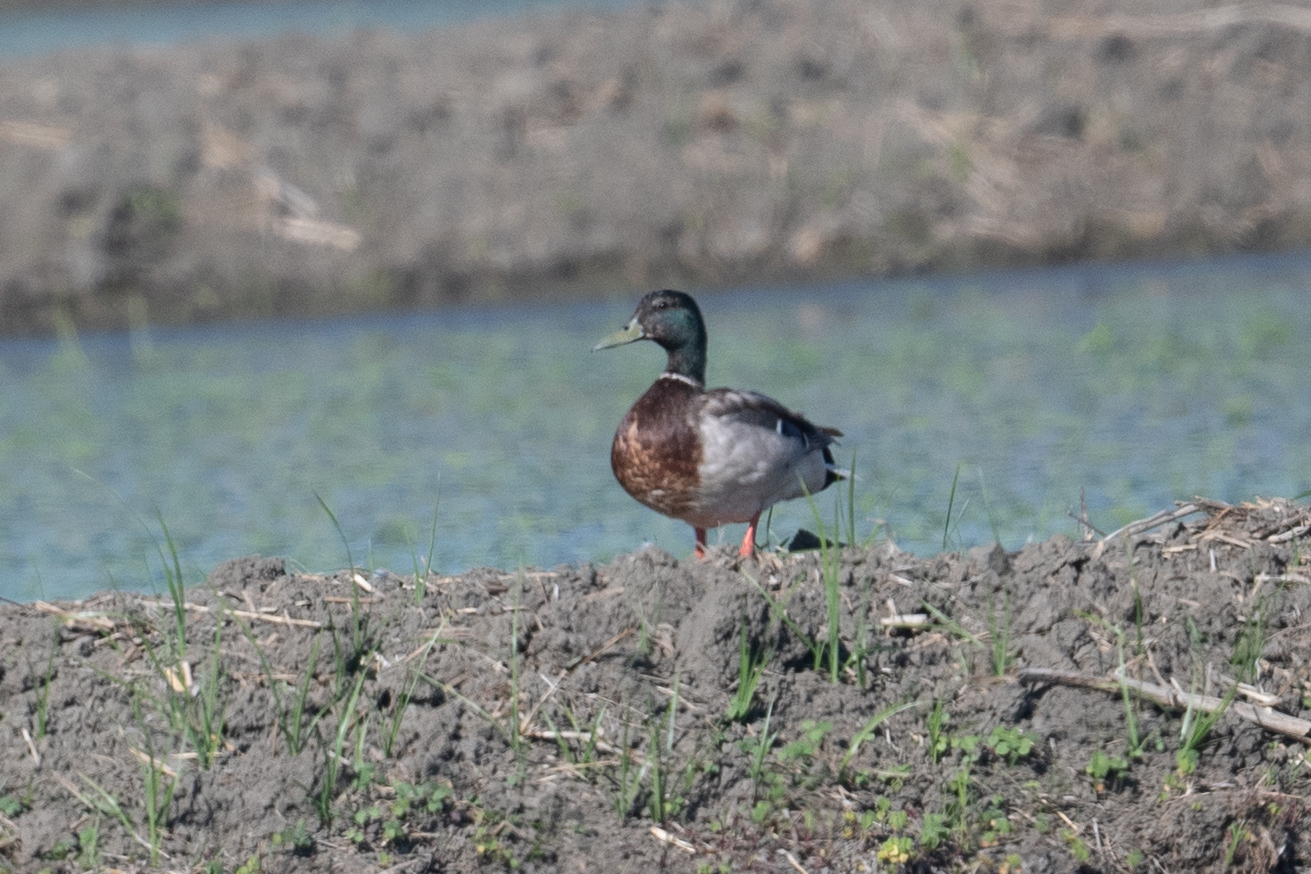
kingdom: Animalia
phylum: Chordata
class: Aves
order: Anseriformes
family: Anatidae
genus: Anas
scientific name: Anas platyrhynchos
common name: Mallard
